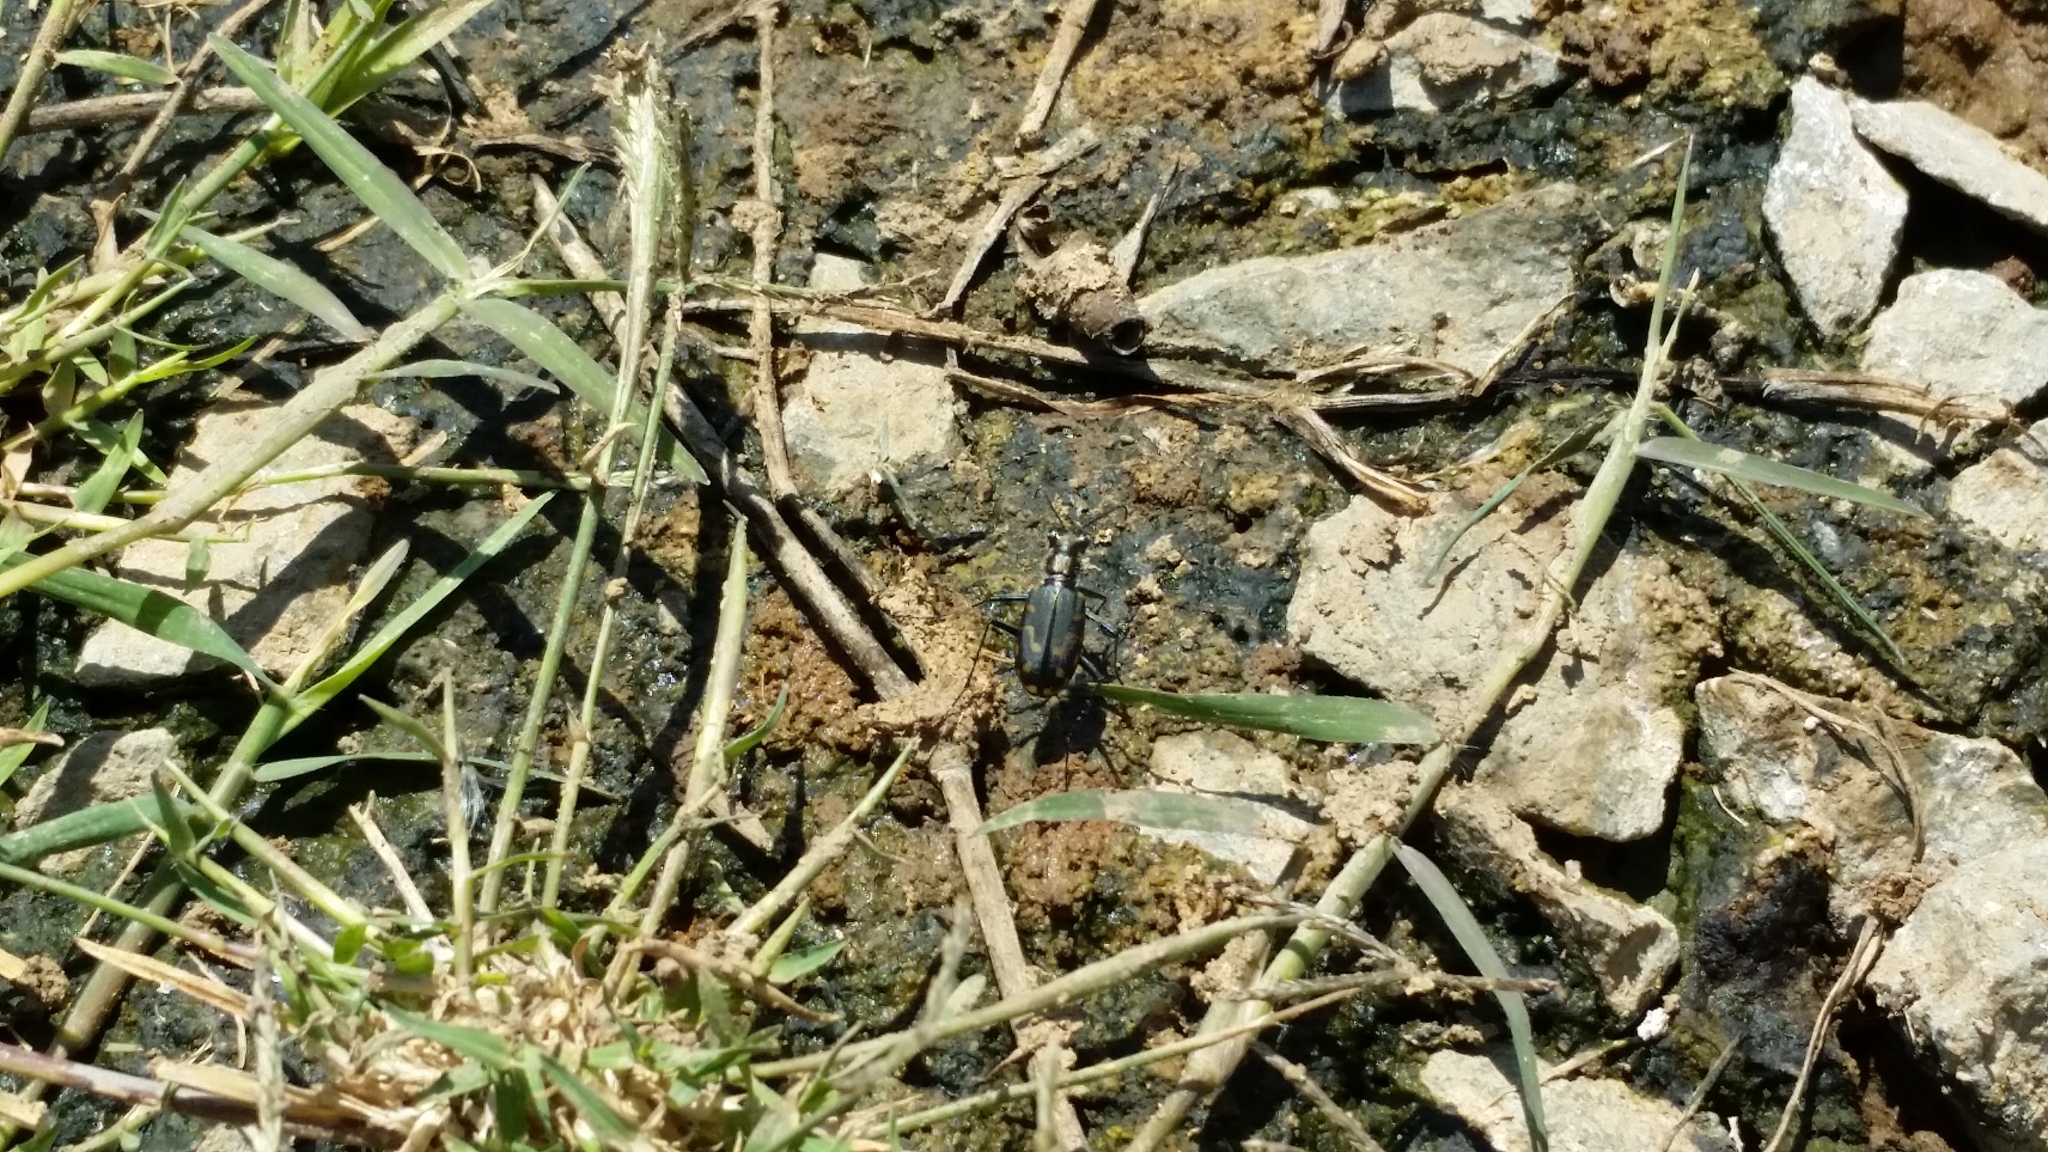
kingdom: Animalia
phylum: Arthropoda
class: Insecta
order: Coleoptera
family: Carabidae
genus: Cicindela
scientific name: Cicindela hemorrhagica
